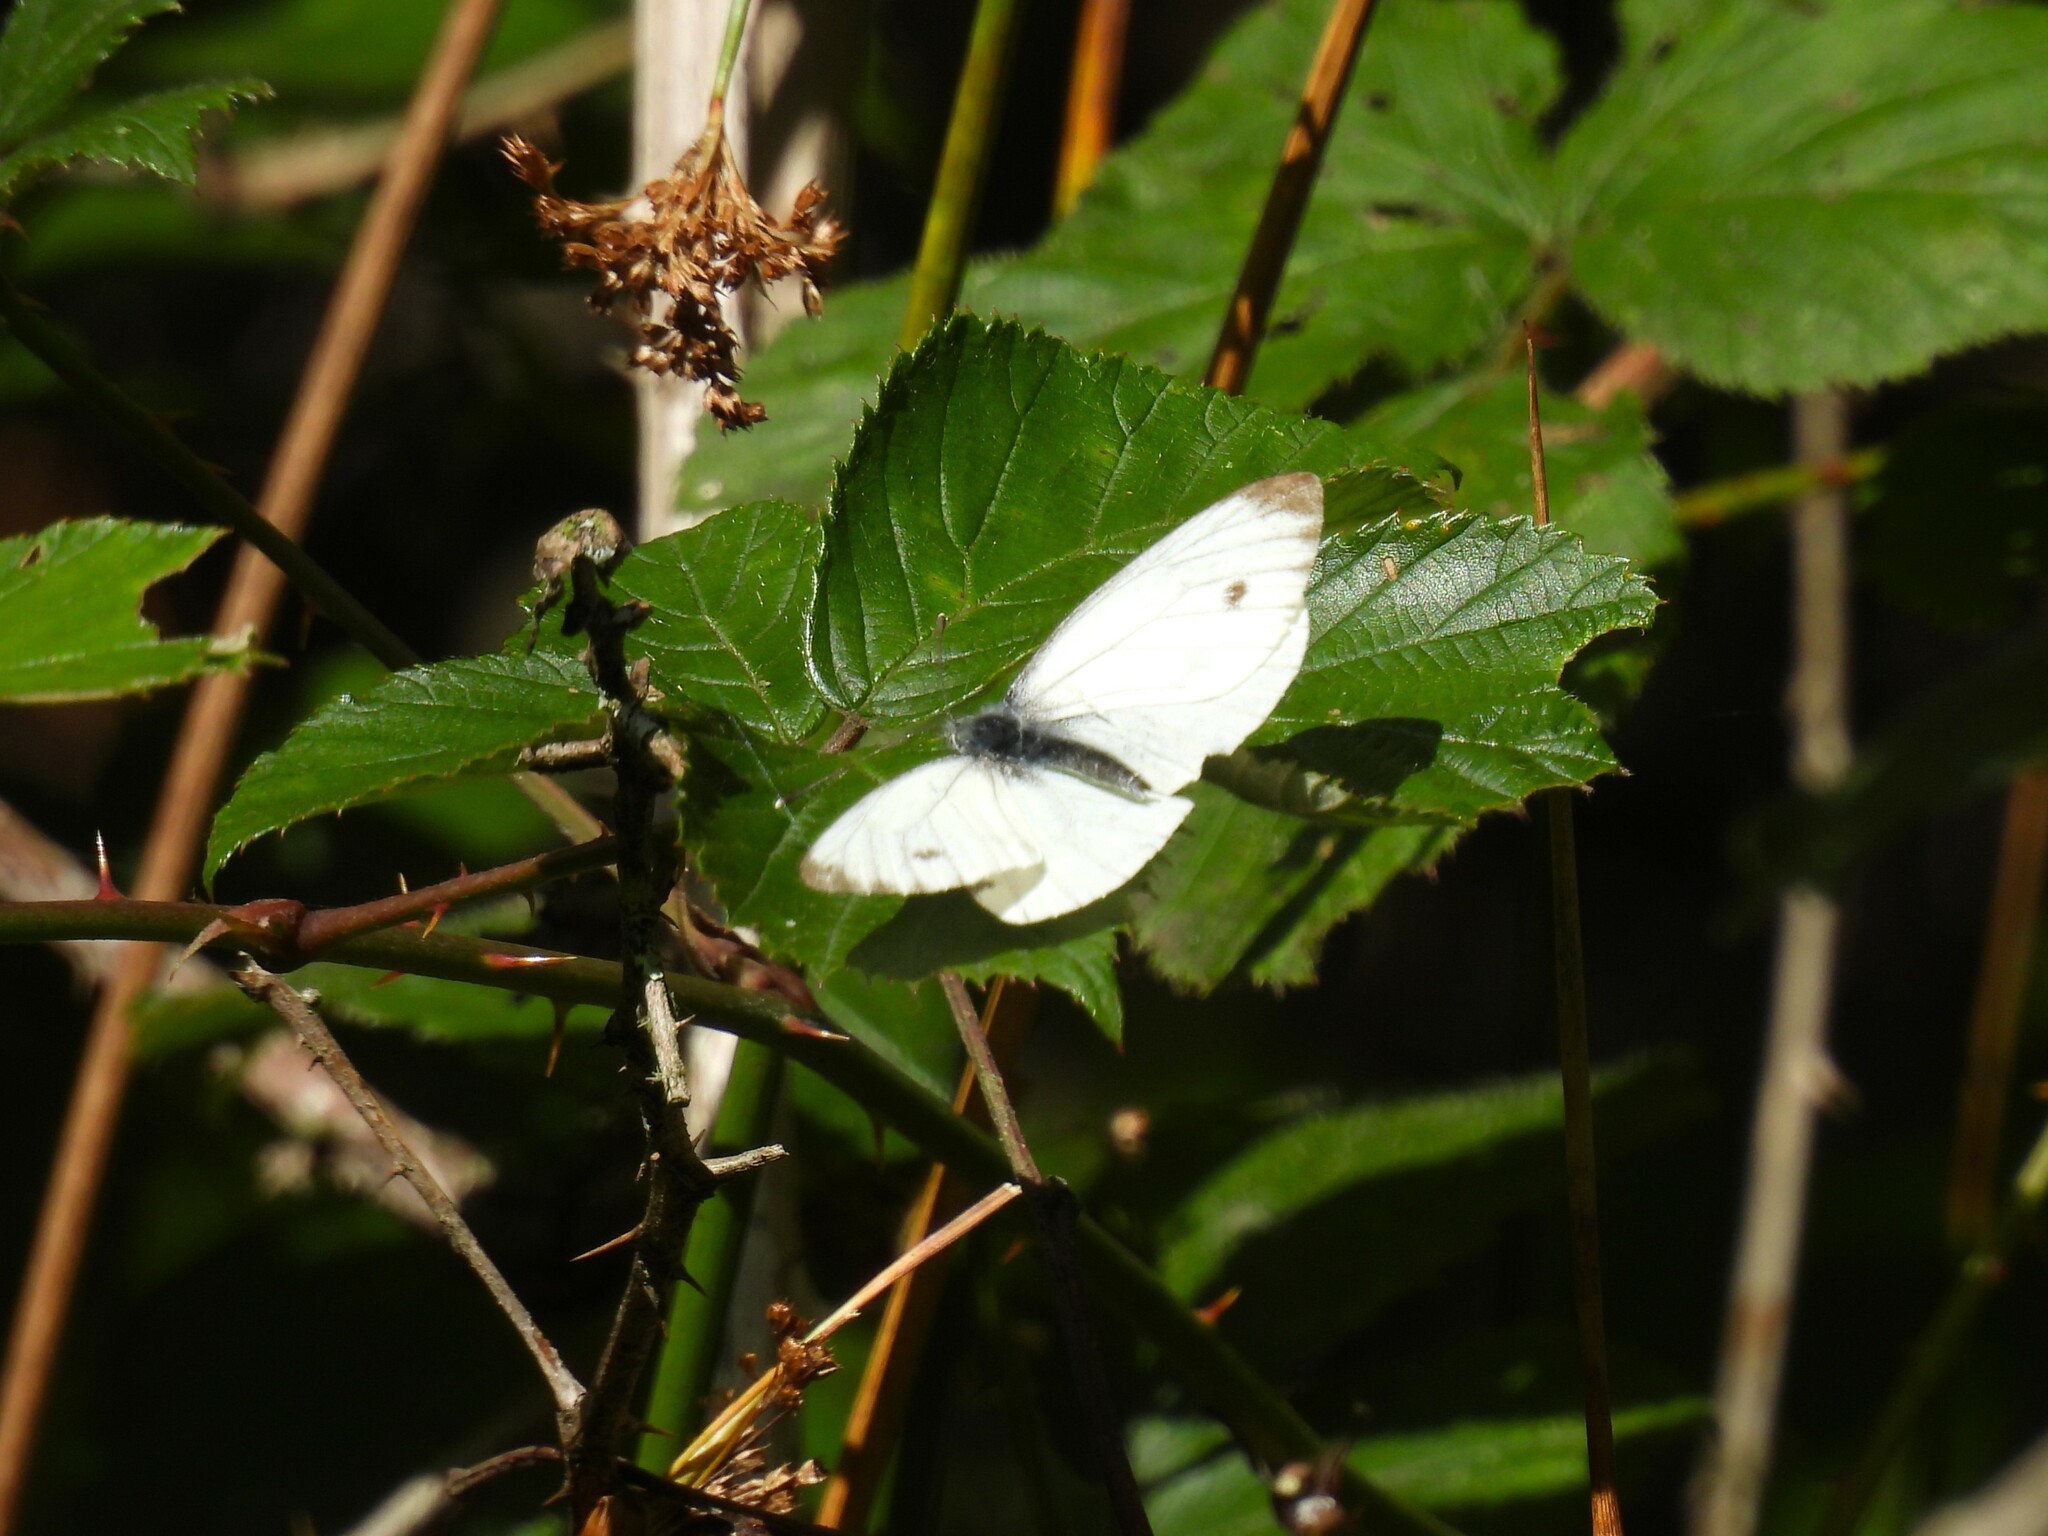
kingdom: Animalia
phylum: Arthropoda
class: Insecta
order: Lepidoptera
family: Pieridae
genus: Pieris
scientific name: Pieris napi
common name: Green-veined white
